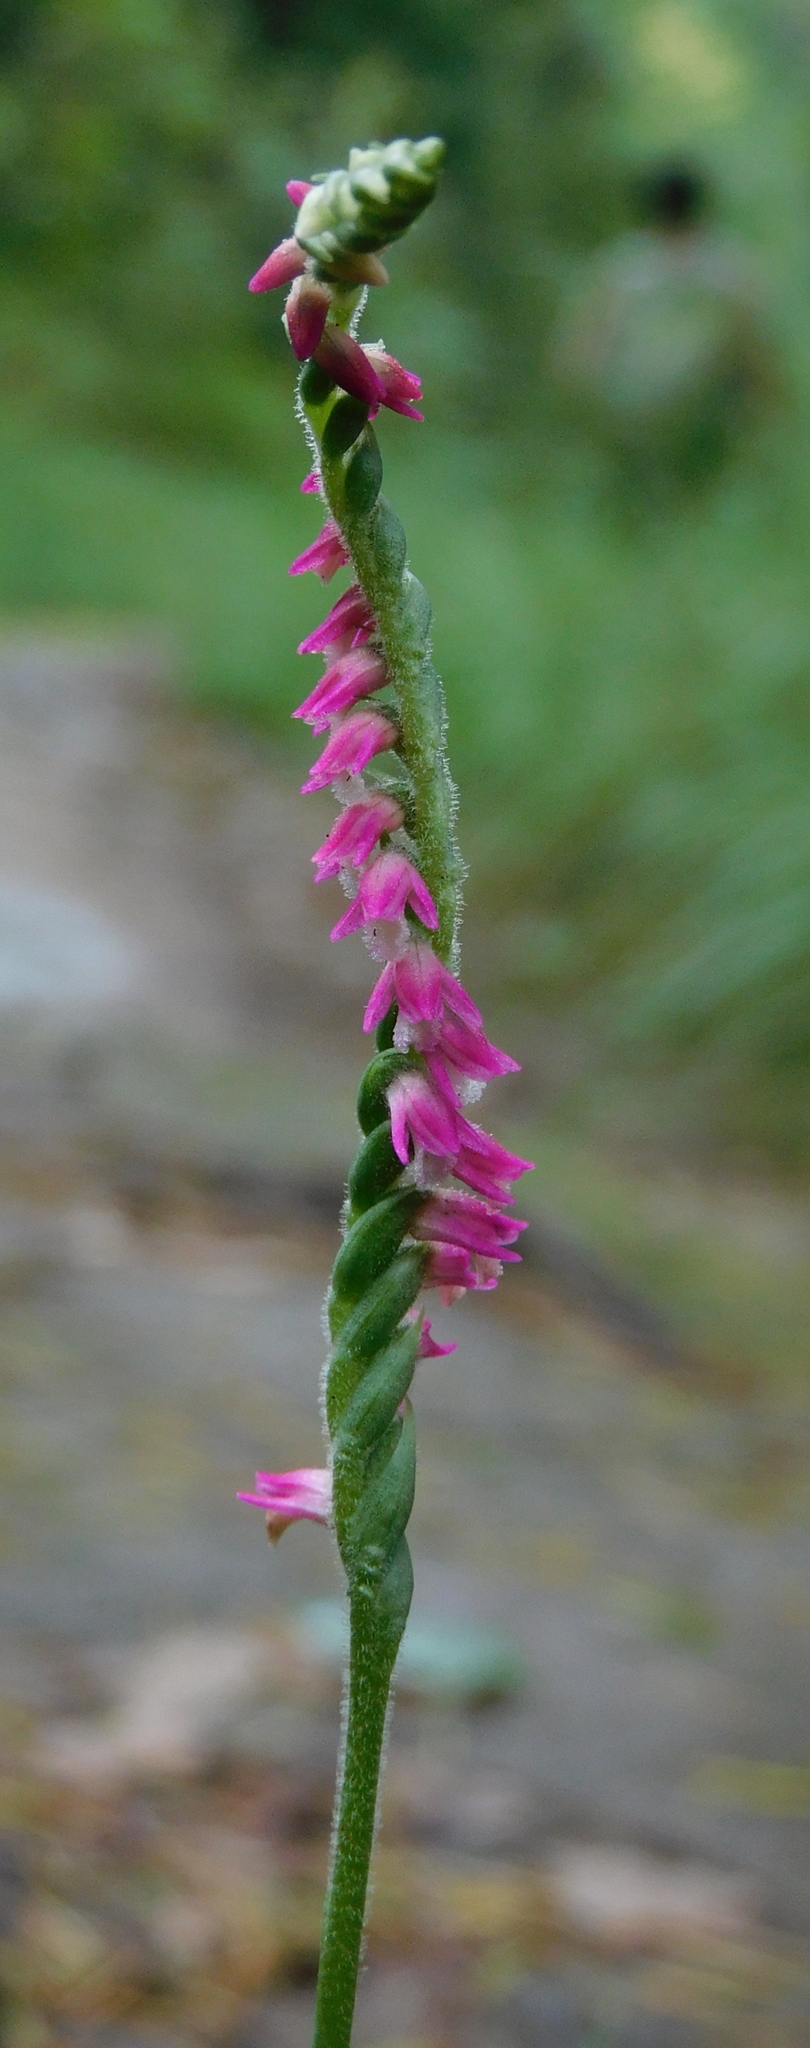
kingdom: Plantae
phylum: Tracheophyta
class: Liliopsida
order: Asparagales
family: Orchidaceae
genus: Spiranthes
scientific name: Spiranthes australis
